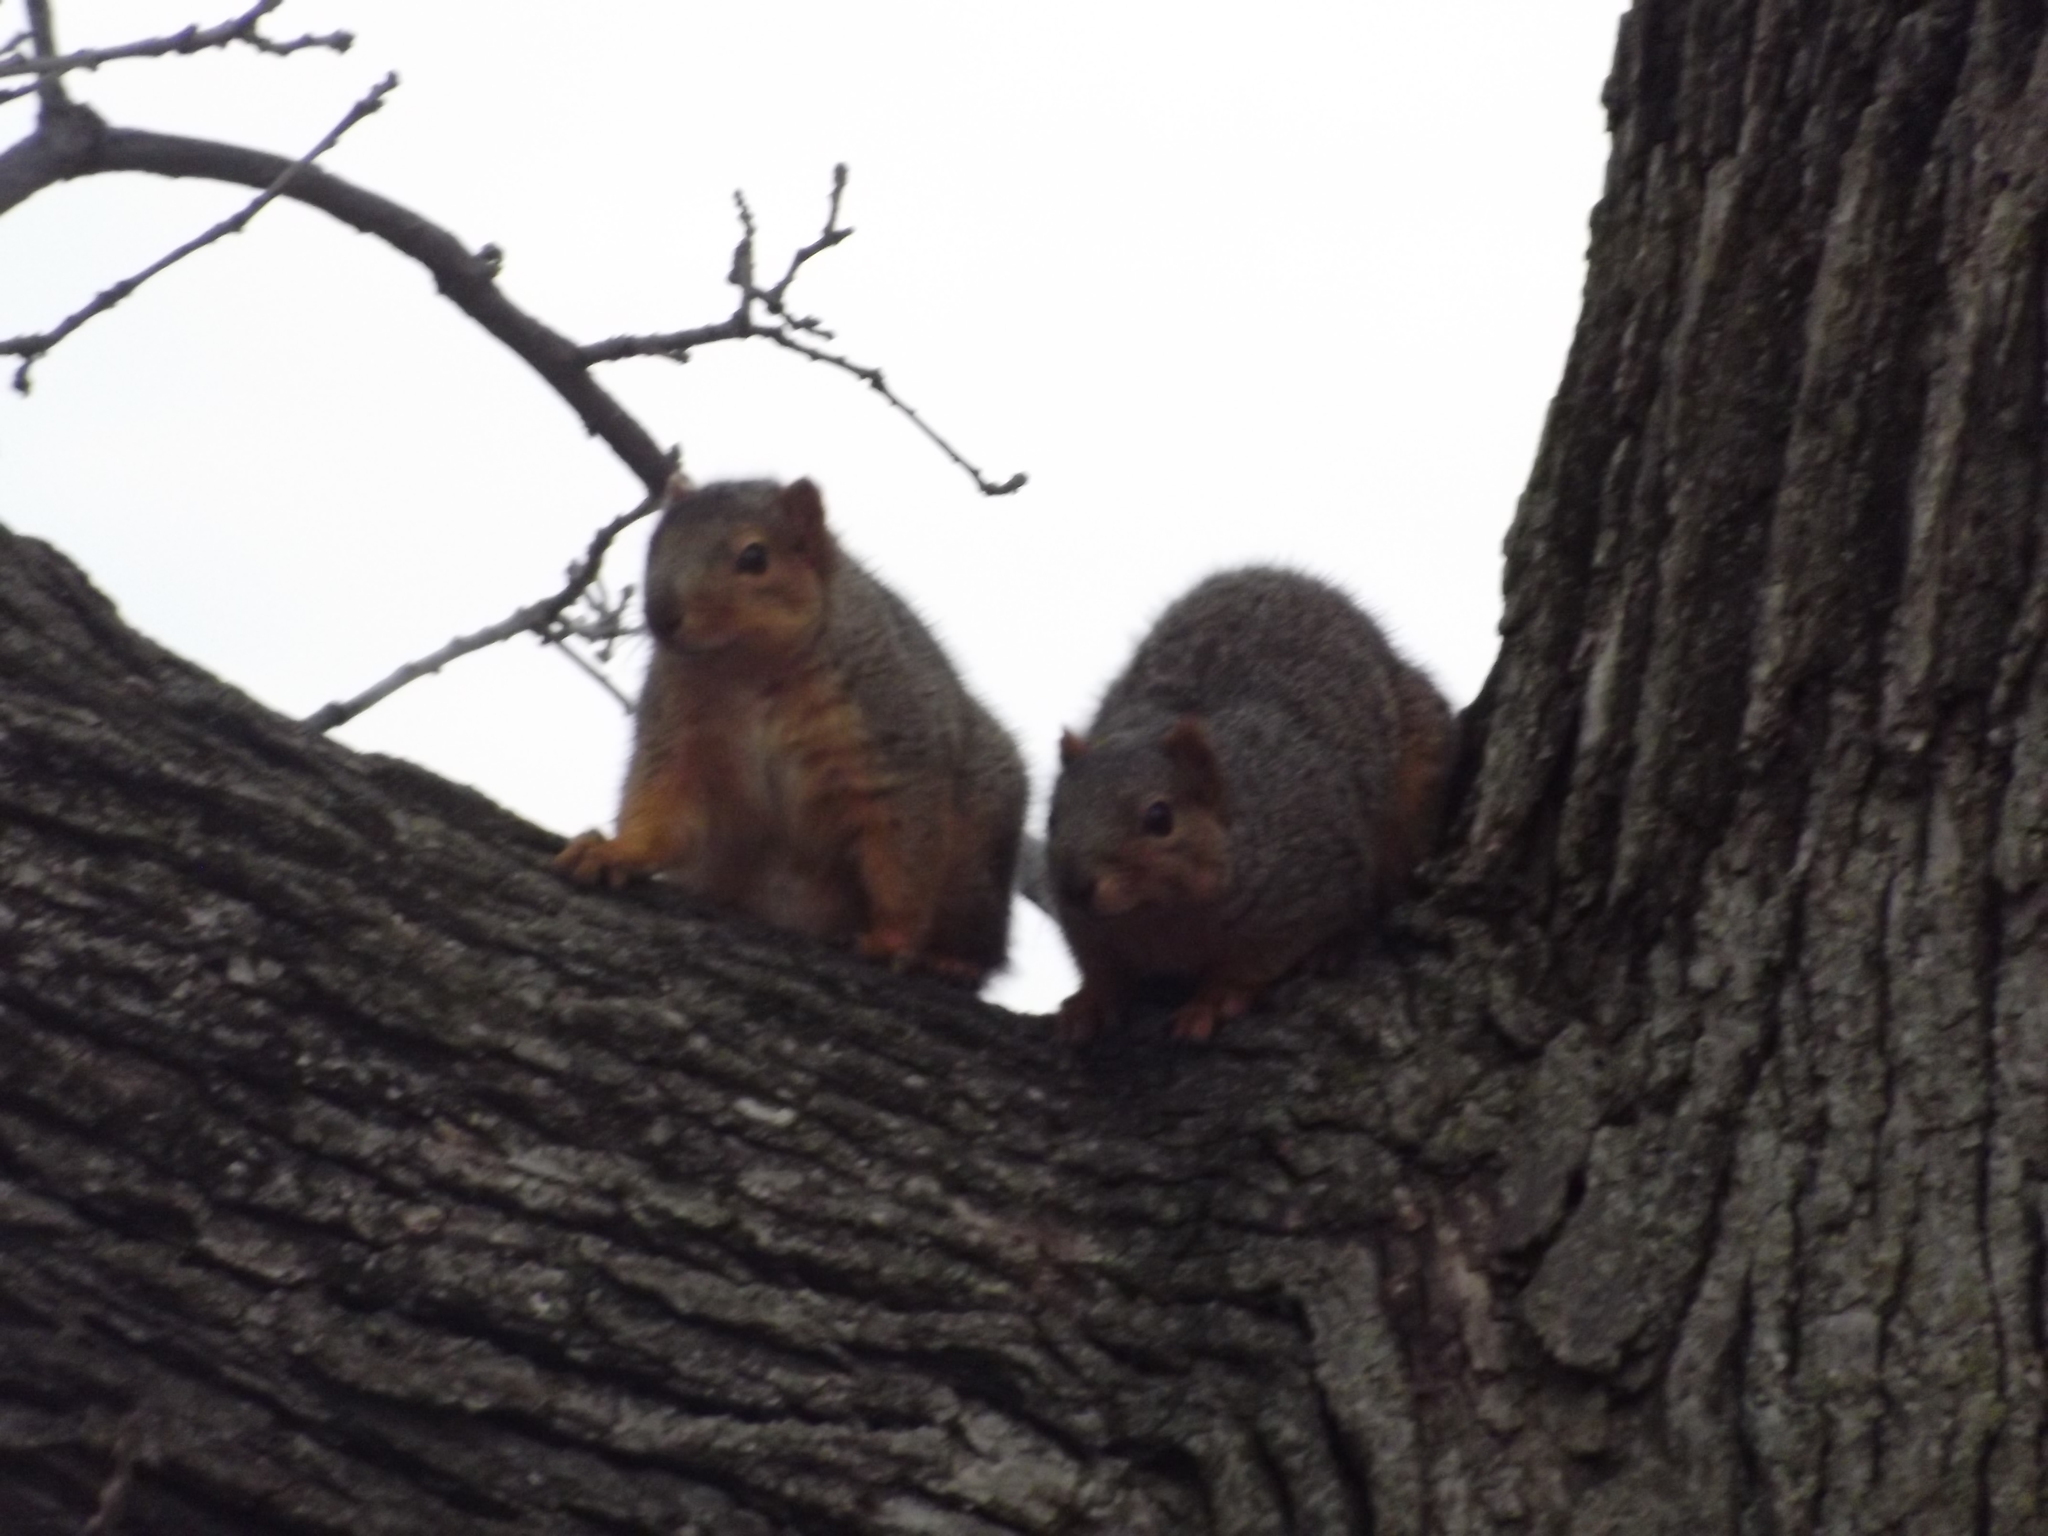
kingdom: Animalia
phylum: Chordata
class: Mammalia
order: Rodentia
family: Sciuridae
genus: Sciurus
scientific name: Sciurus niger
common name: Fox squirrel
